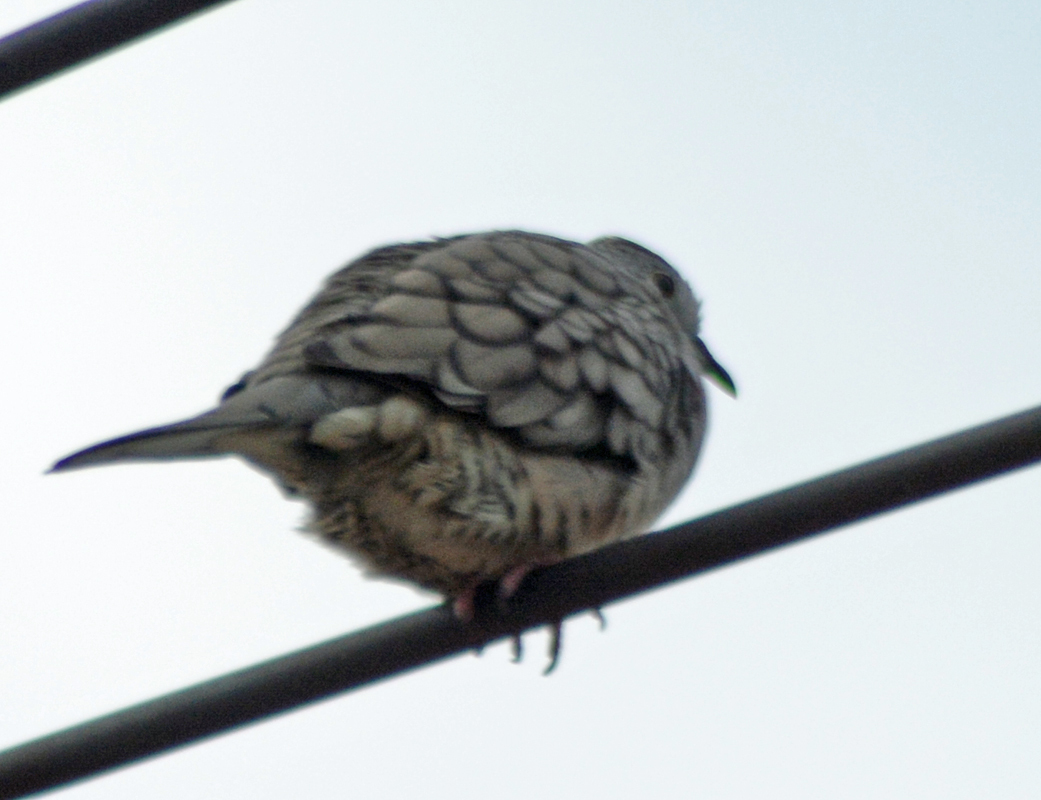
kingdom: Animalia
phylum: Chordata
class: Aves
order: Columbiformes
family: Columbidae
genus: Columbina
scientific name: Columbina inca
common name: Inca dove
